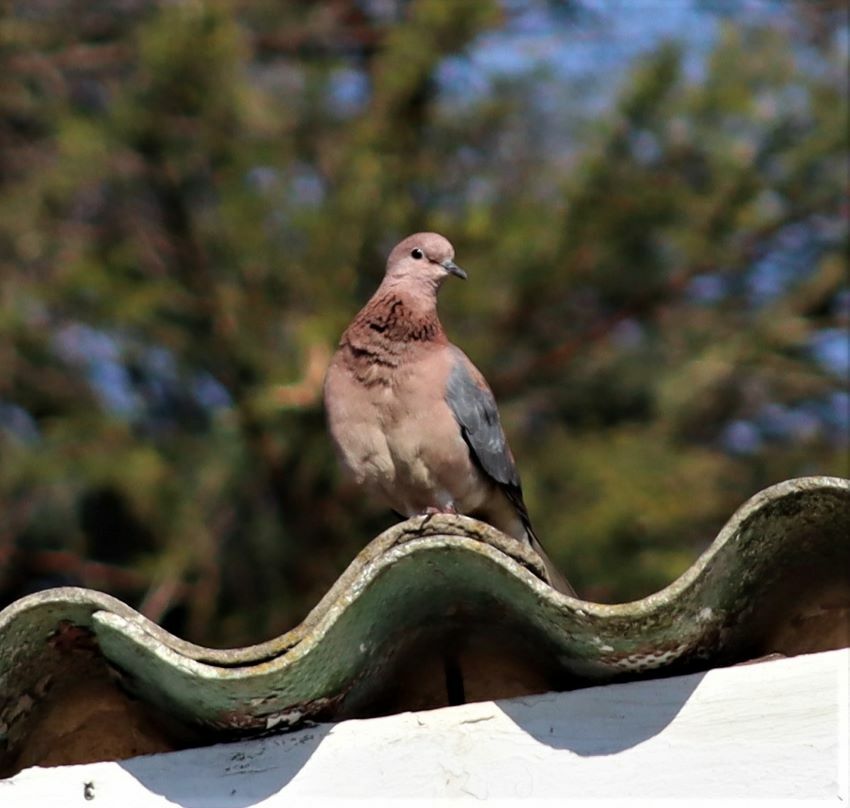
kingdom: Animalia
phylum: Chordata
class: Aves
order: Columbiformes
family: Columbidae
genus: Spilopelia
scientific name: Spilopelia senegalensis
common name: Laughing dove
